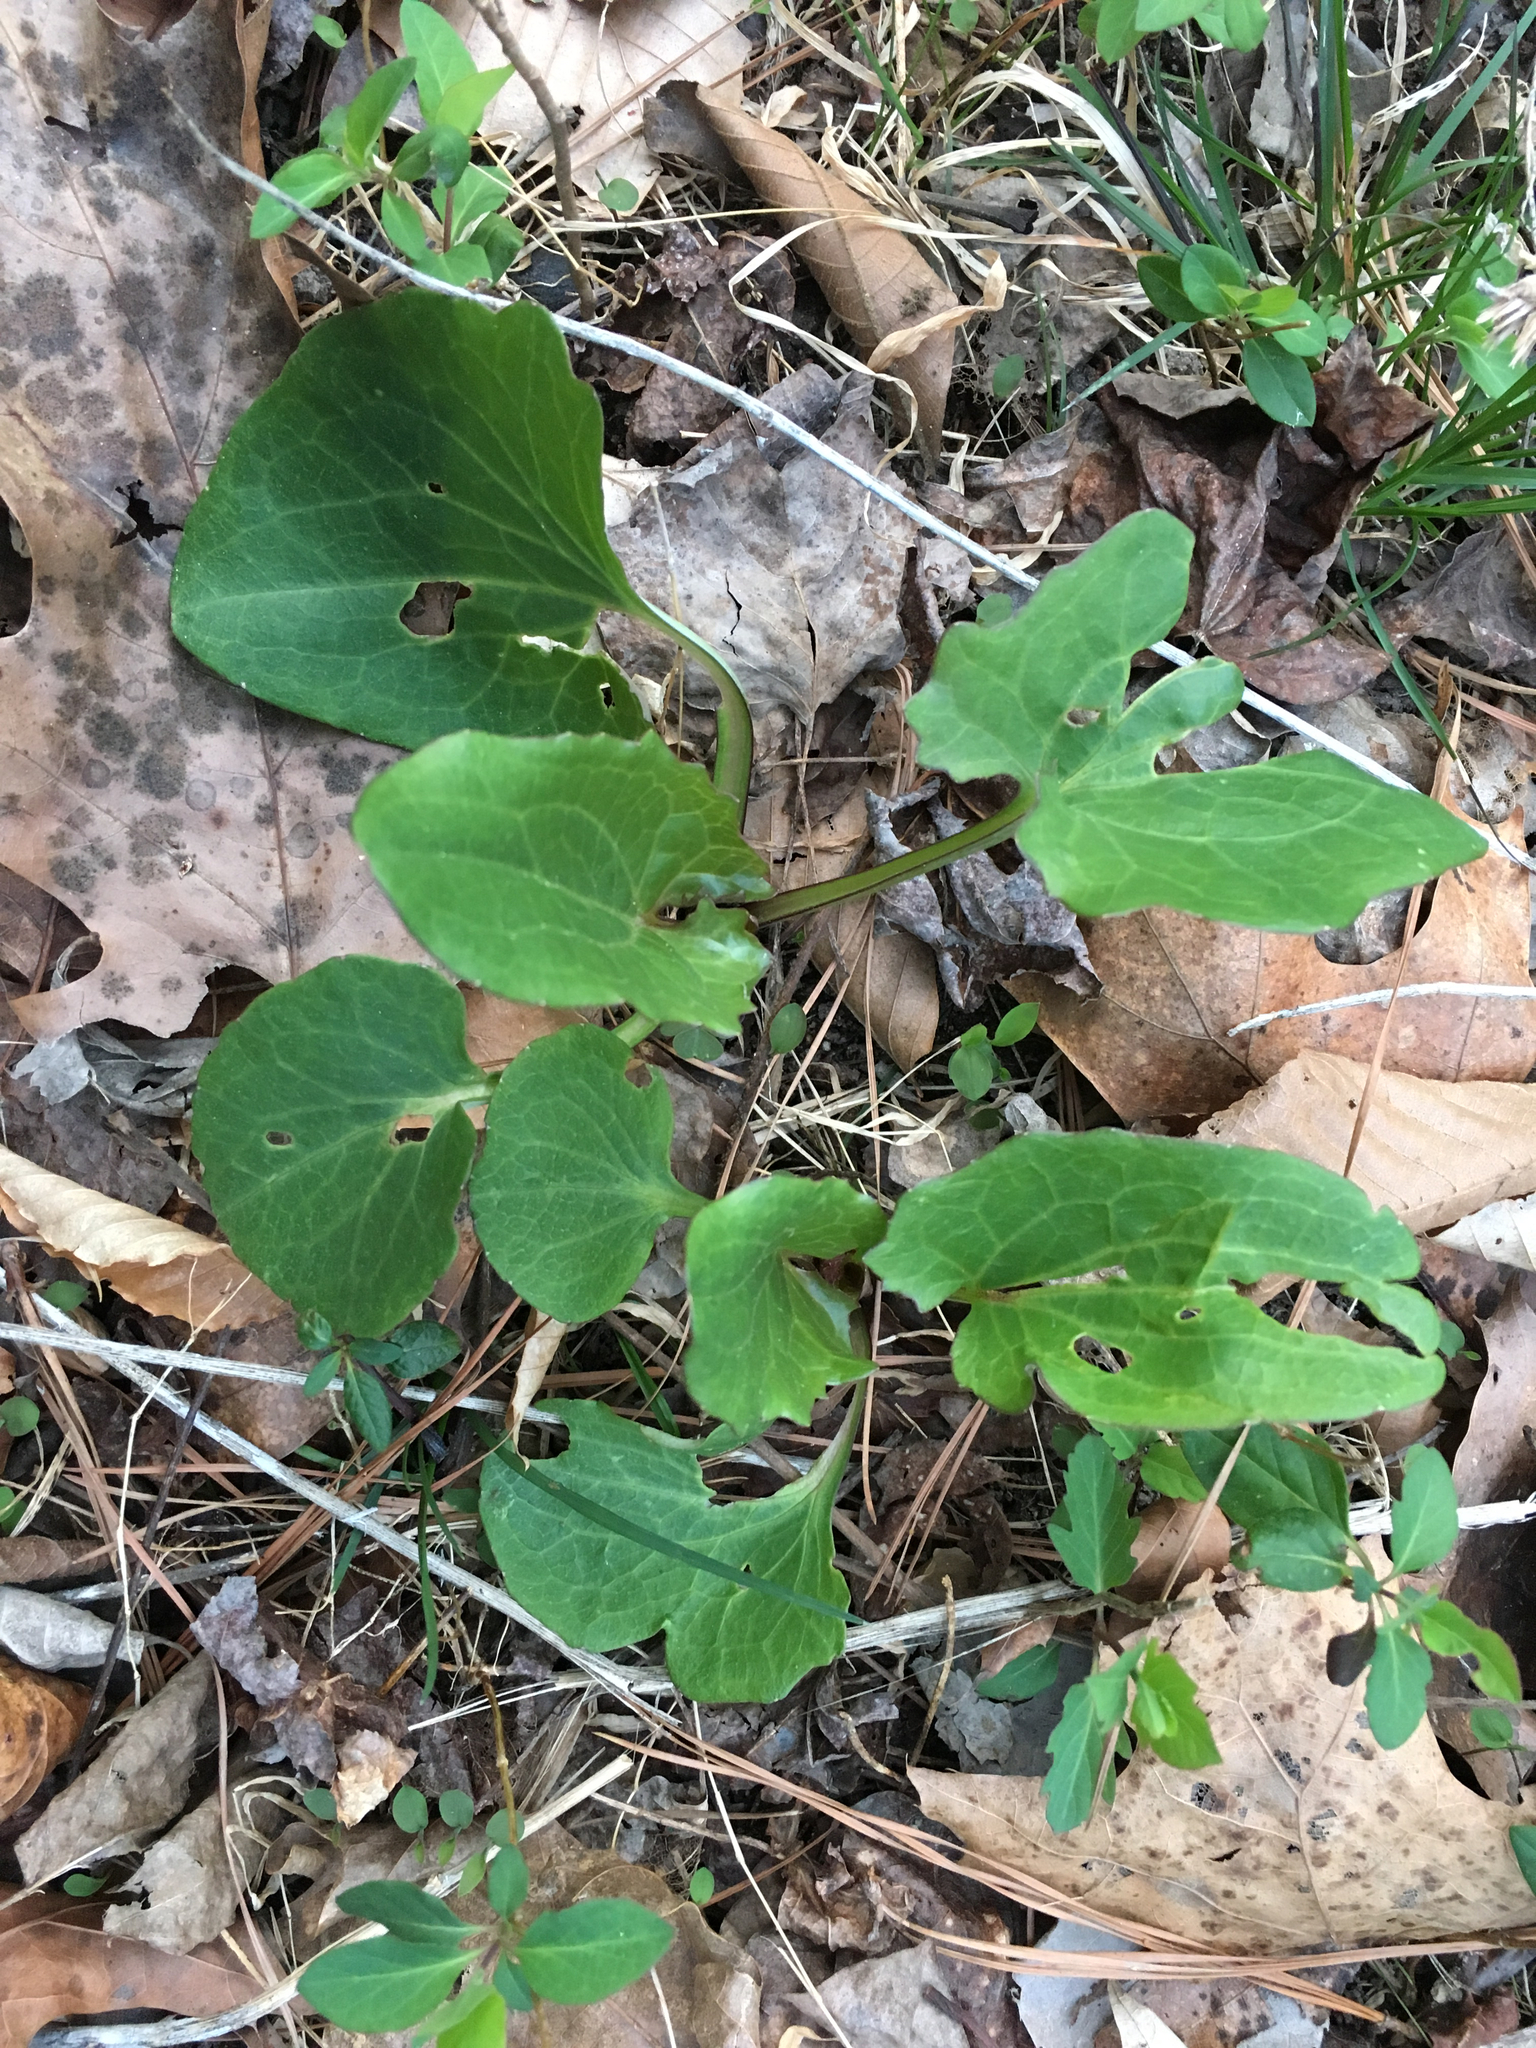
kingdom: Plantae
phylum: Tracheophyta
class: Magnoliopsida
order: Asterales
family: Asteraceae
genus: Arnoglossum
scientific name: Arnoglossum atriplicifolium
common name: Pale indian-plantain
